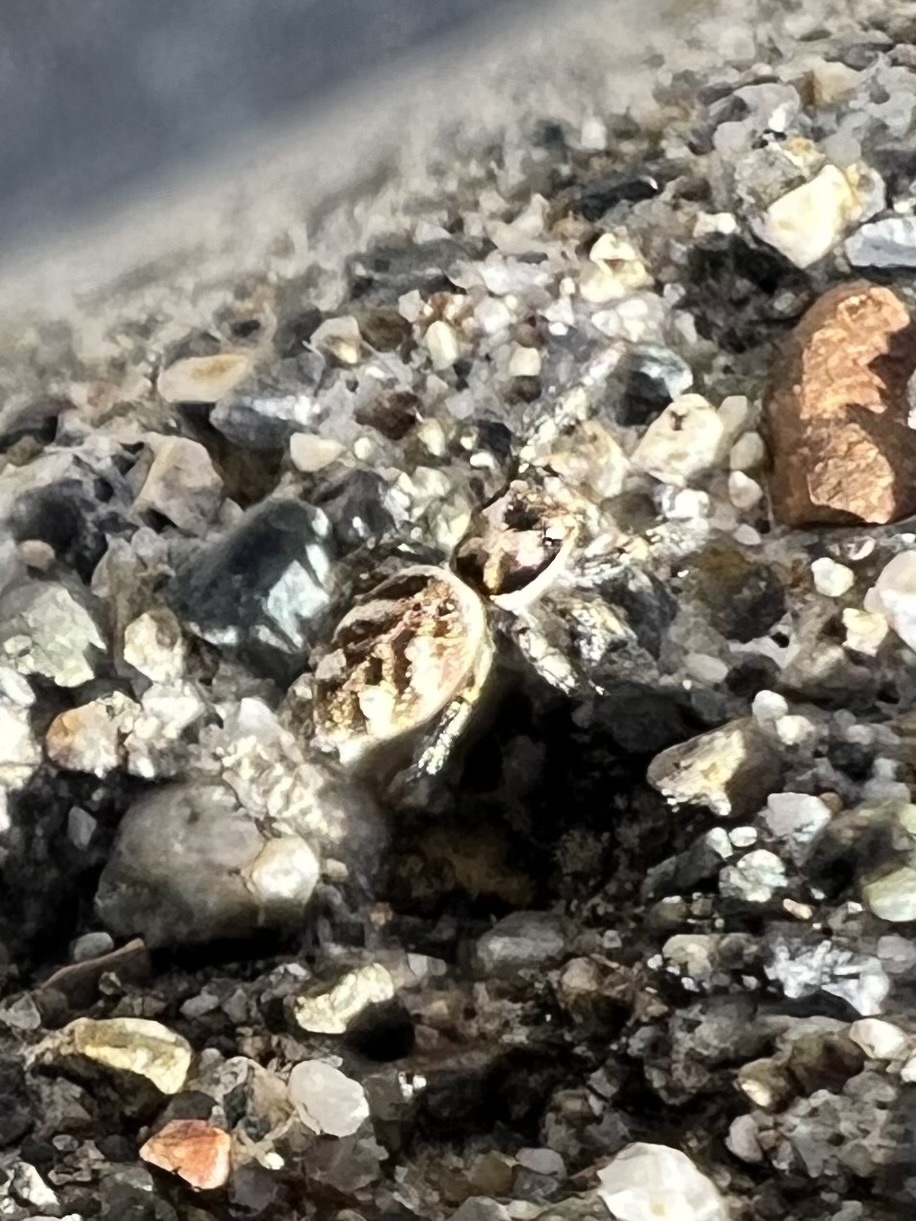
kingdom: Animalia
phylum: Arthropoda
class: Arachnida
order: Araneae
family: Salticidae
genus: Salticus
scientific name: Salticus scenicus
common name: Zebra jumper
